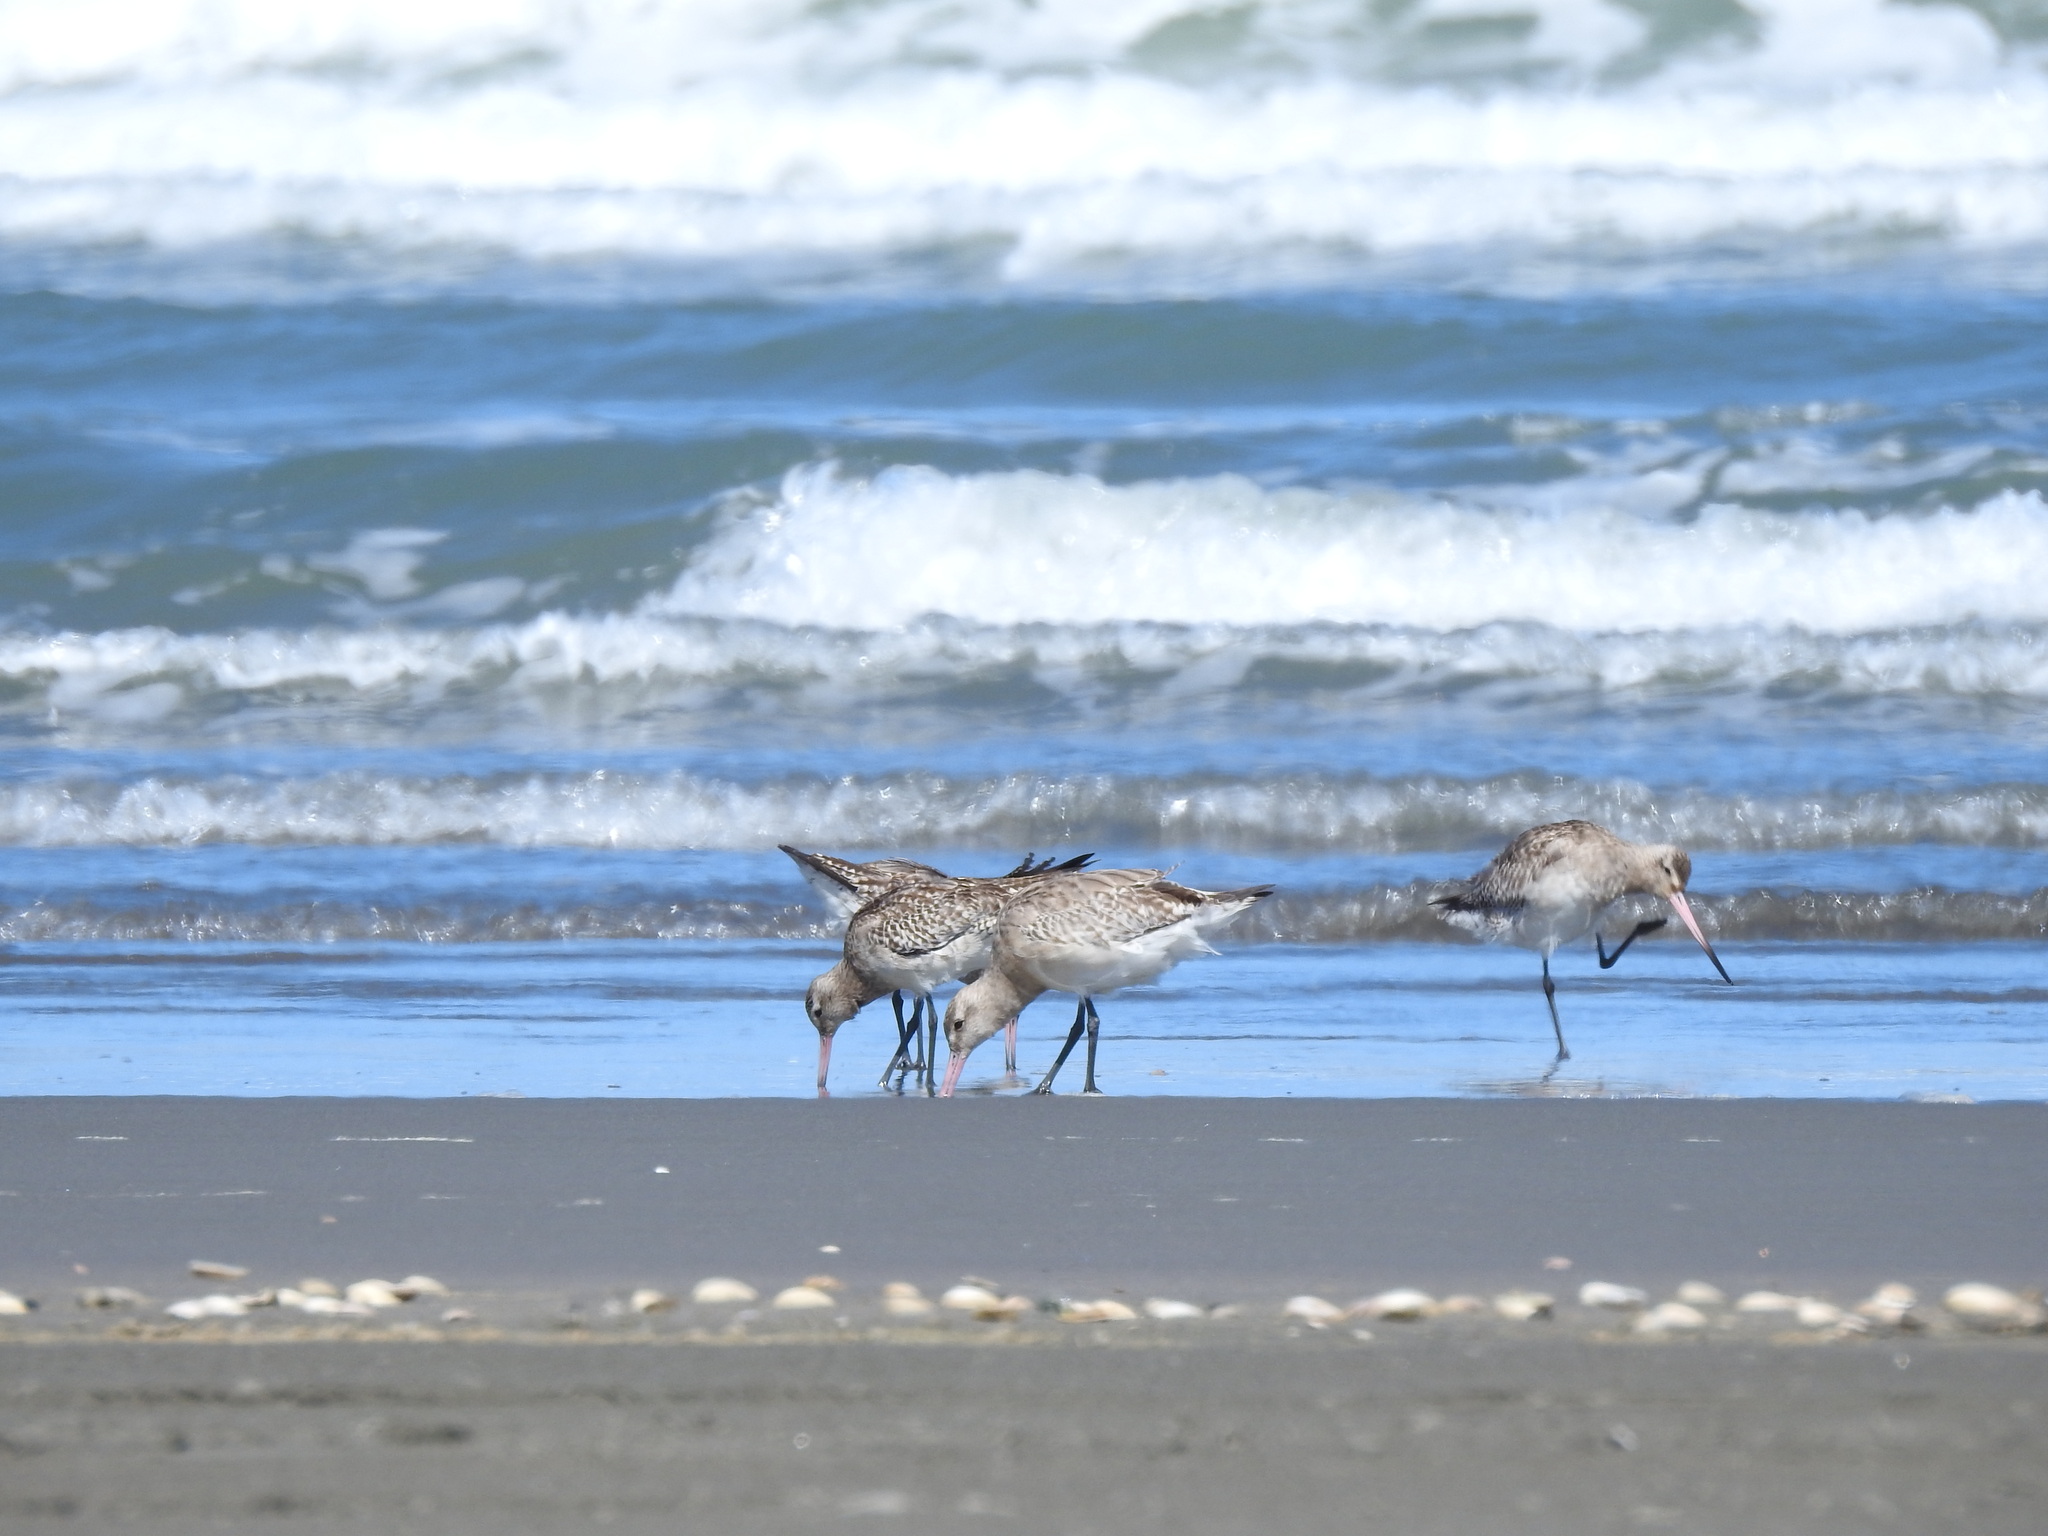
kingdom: Animalia
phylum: Chordata
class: Aves
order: Charadriiformes
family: Scolopacidae
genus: Limosa
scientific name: Limosa lapponica
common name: Bar-tailed godwit
